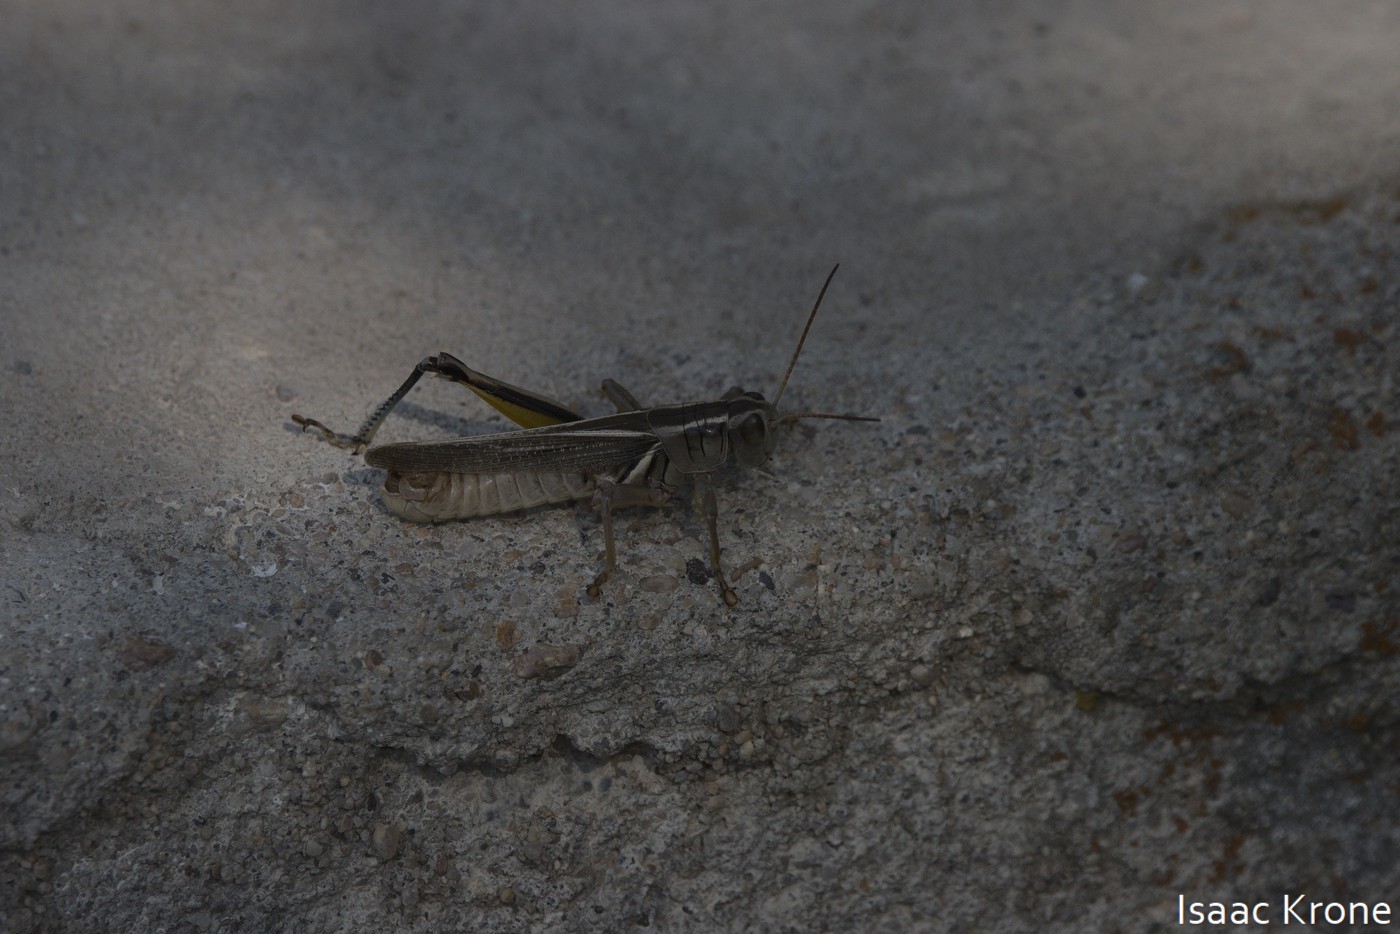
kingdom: Animalia
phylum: Arthropoda
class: Insecta
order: Orthoptera
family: Acrididae
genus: Melanoplus
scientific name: Melanoplus bivittatus
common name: Two-striped grasshopper
